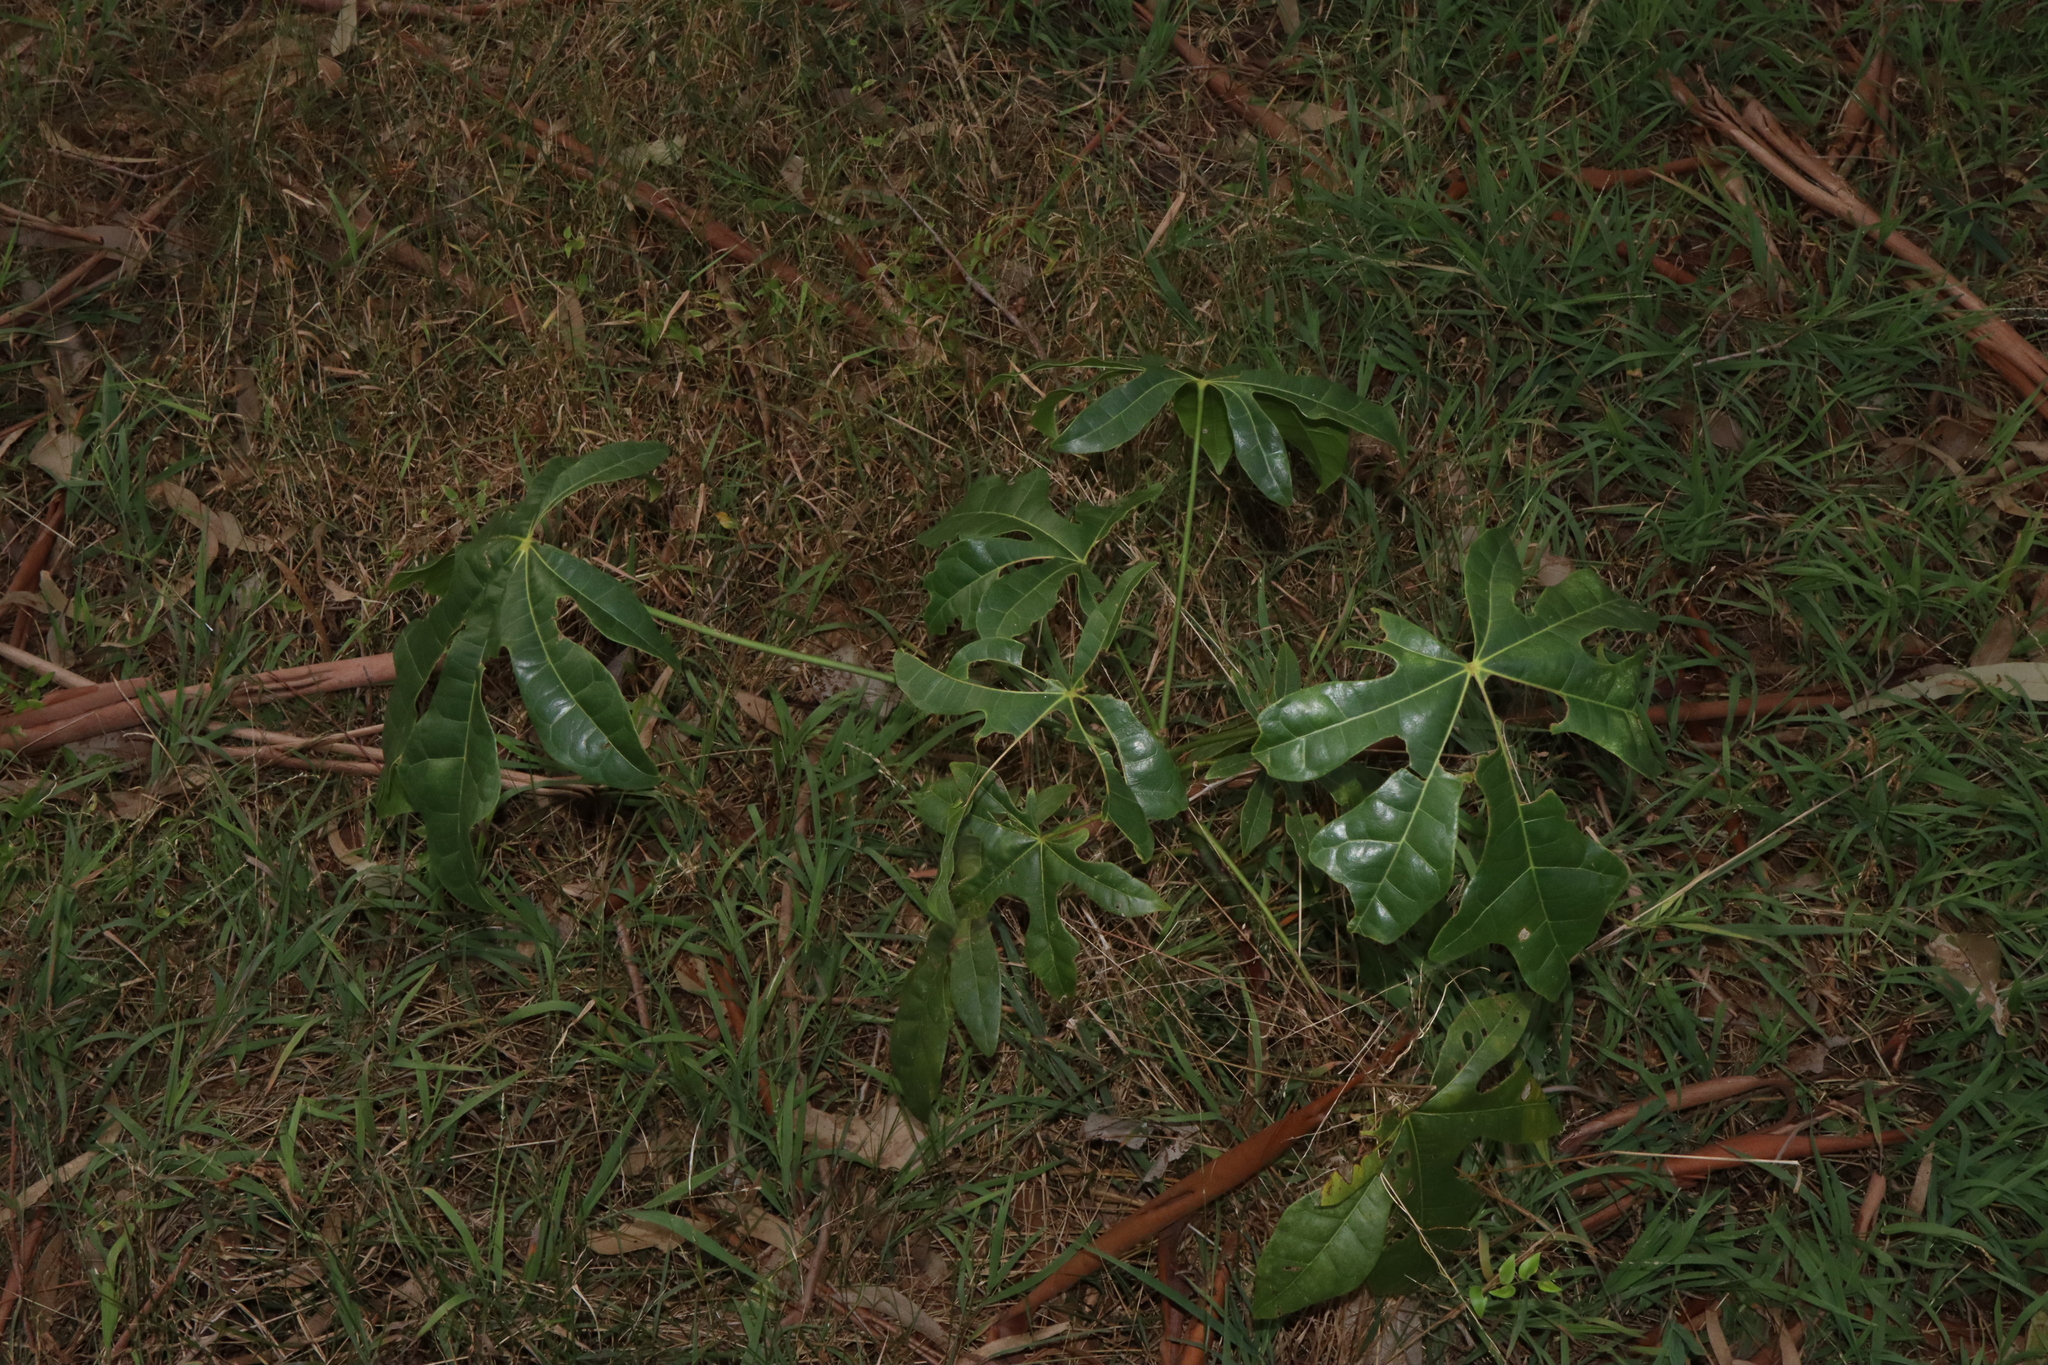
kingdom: Plantae
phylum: Tracheophyta
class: Magnoliopsida
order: Malvales
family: Malvaceae
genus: Brachychiton
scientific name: Brachychiton acerifolius
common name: Illawarra flame tree
